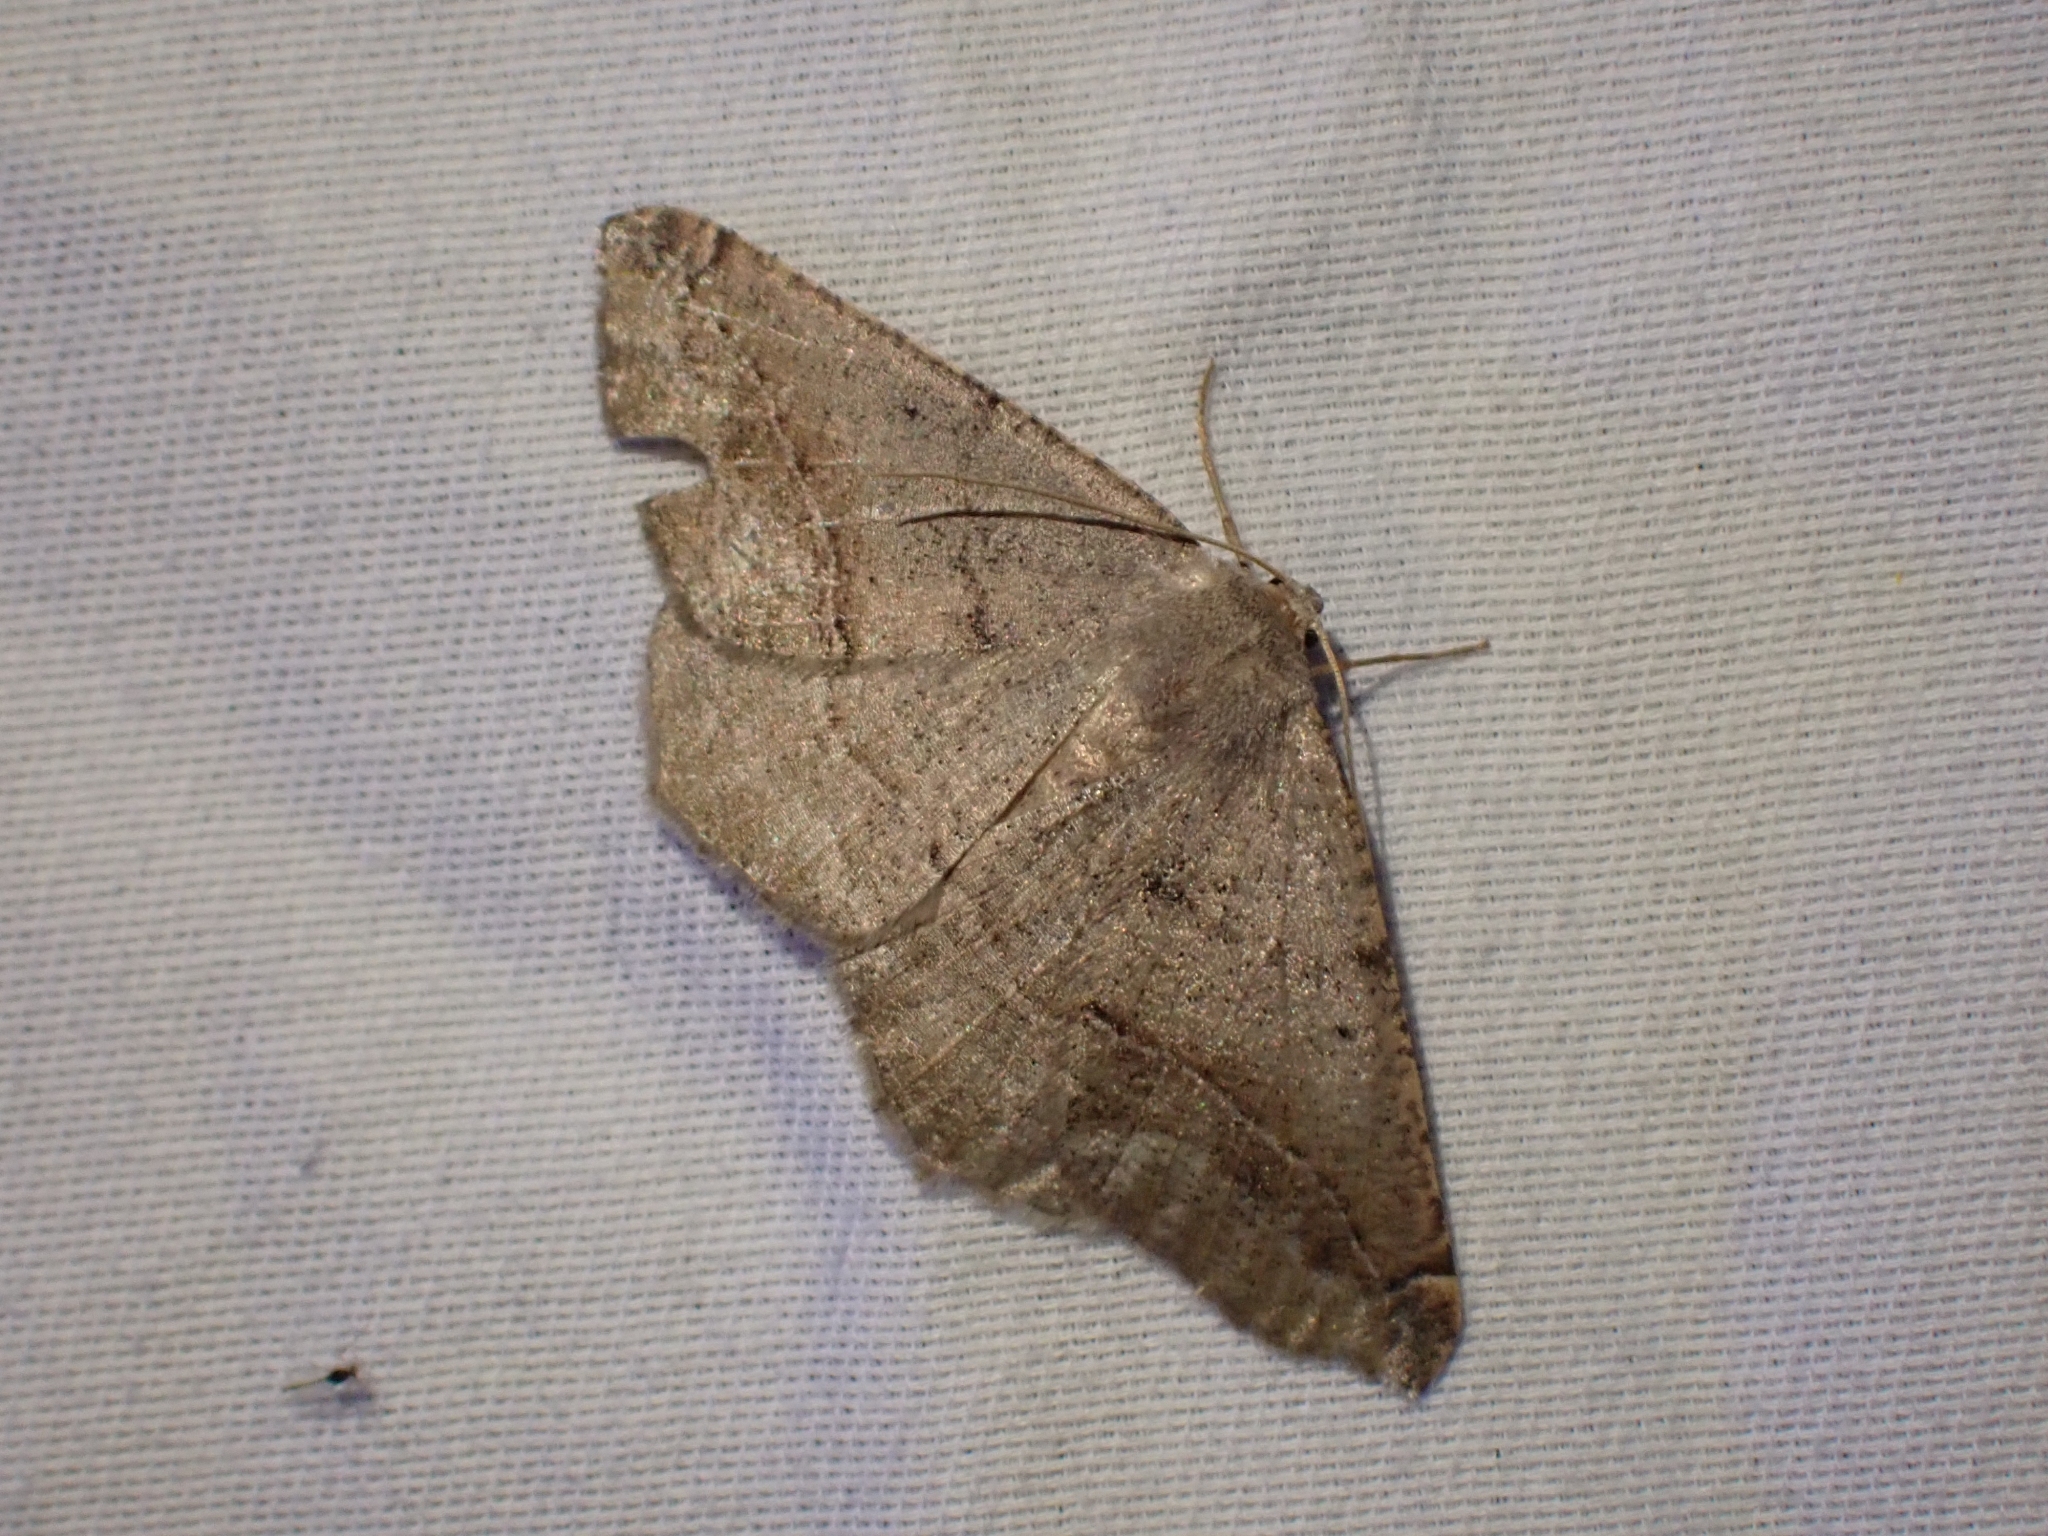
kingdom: Animalia
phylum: Arthropoda
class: Insecta
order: Lepidoptera
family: Geometridae
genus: Prochoerodes
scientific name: Prochoerodes forficaria
